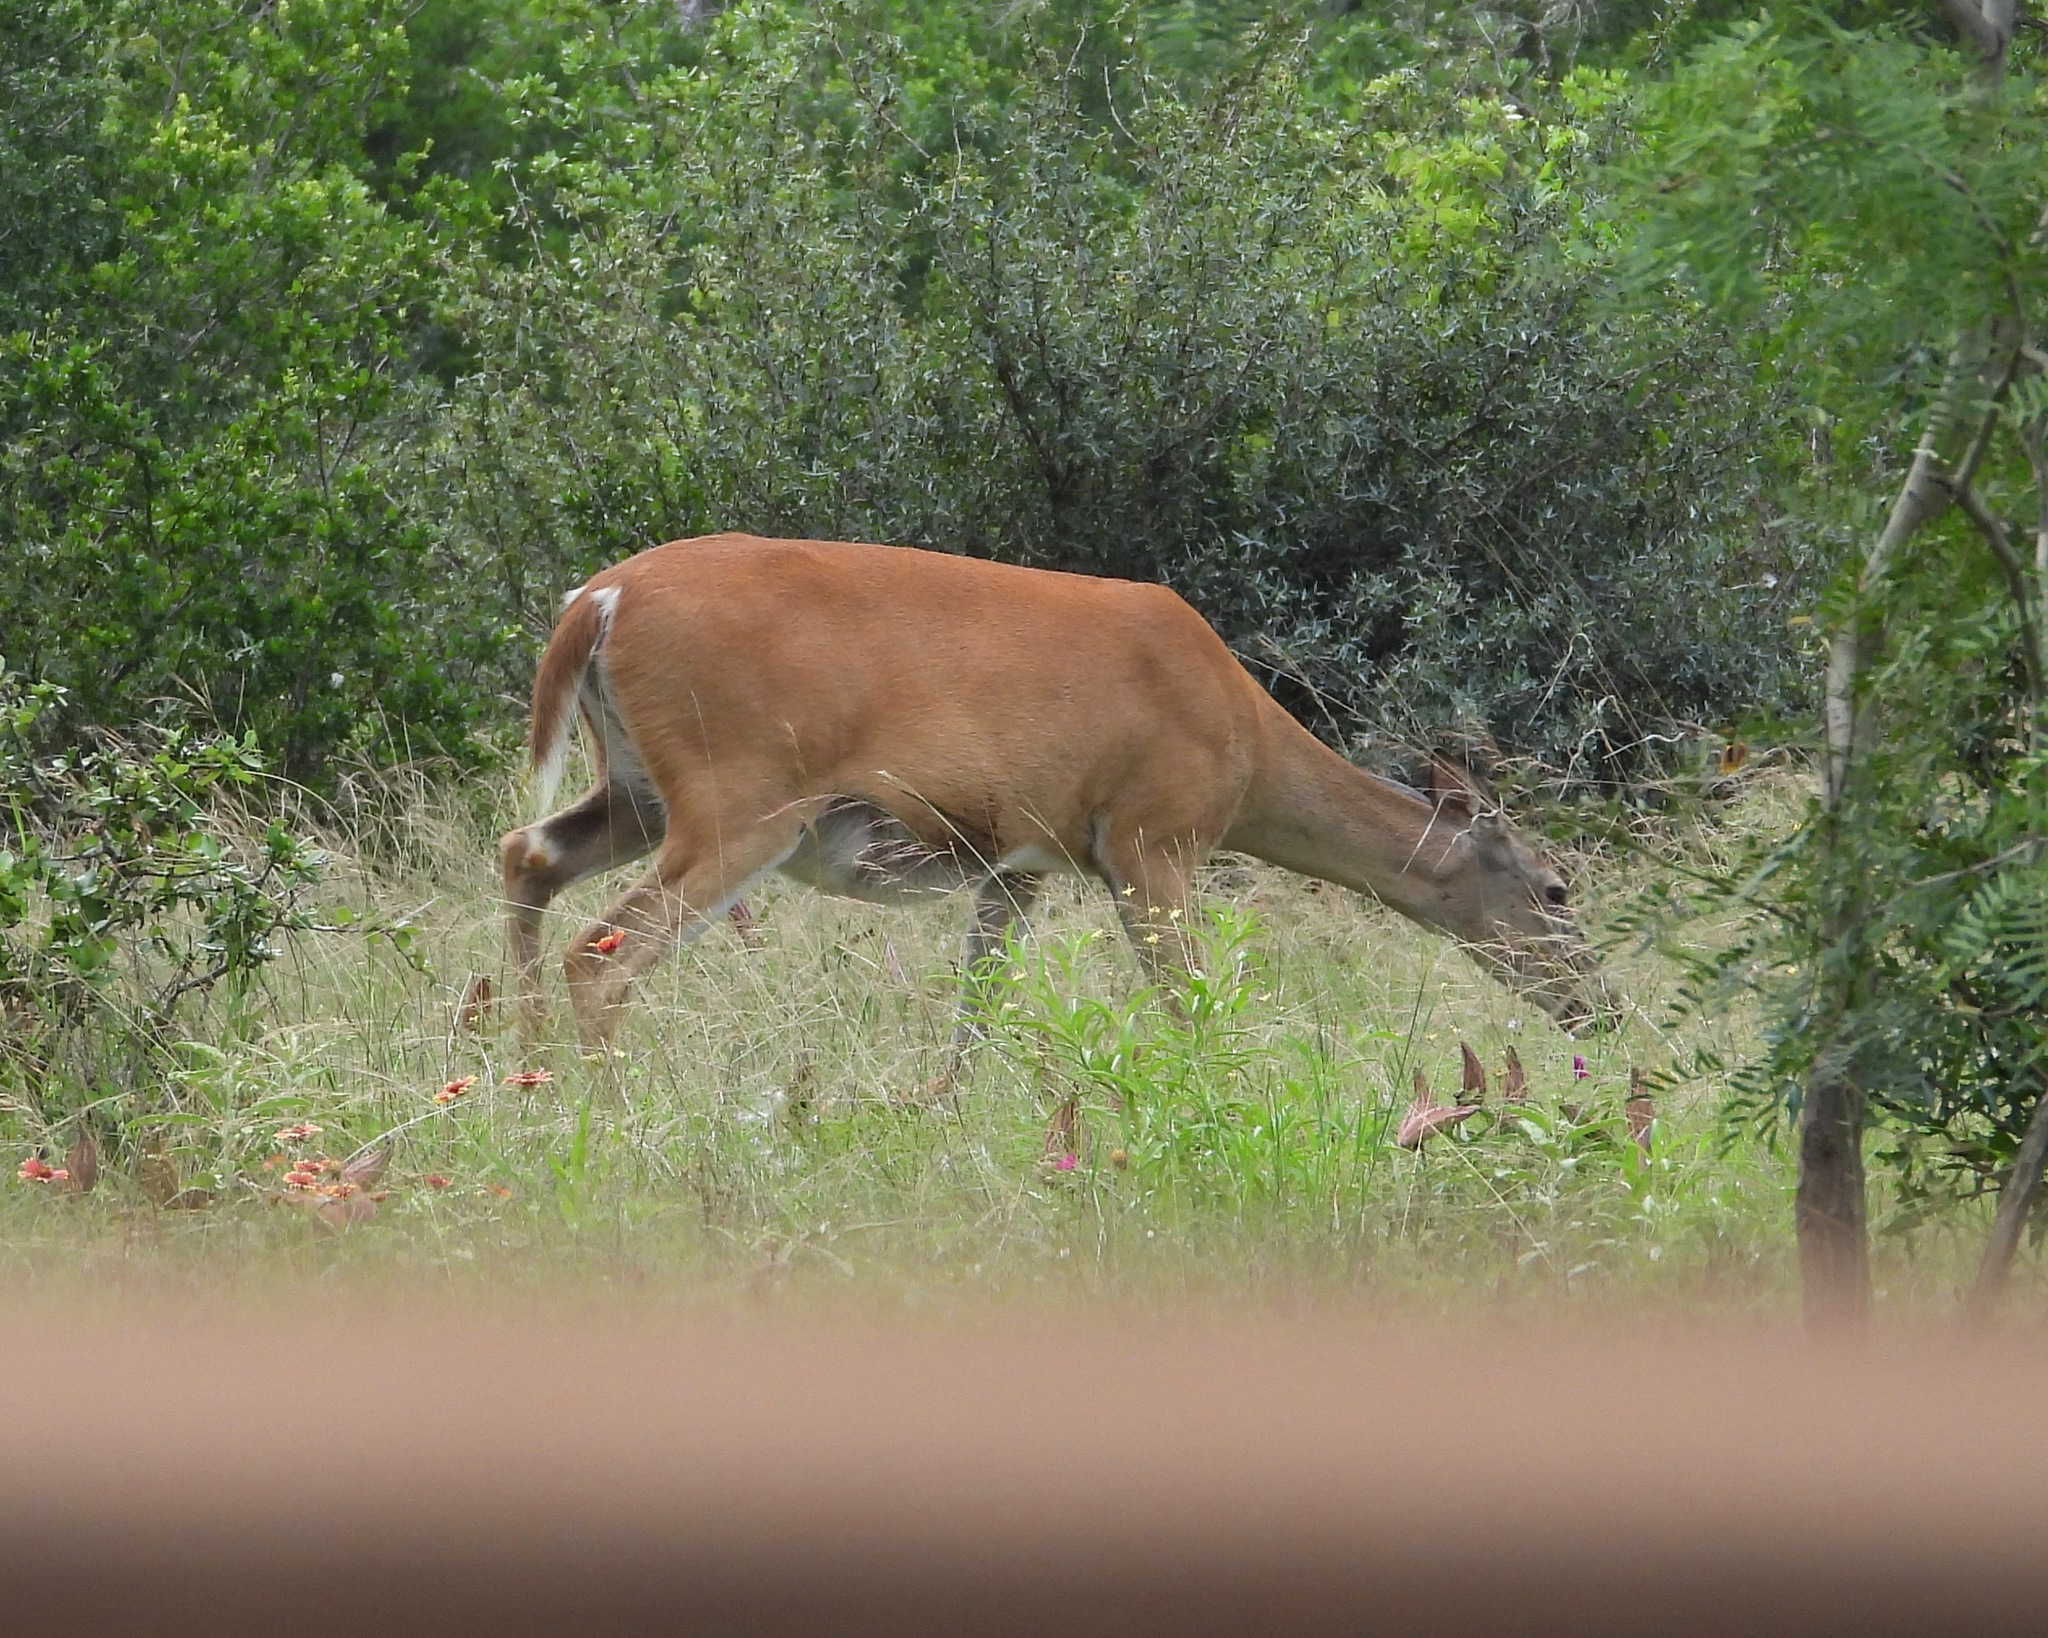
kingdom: Animalia
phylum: Chordata
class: Mammalia
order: Artiodactyla
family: Cervidae
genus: Odocoileus
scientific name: Odocoileus virginianus
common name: White-tailed deer
